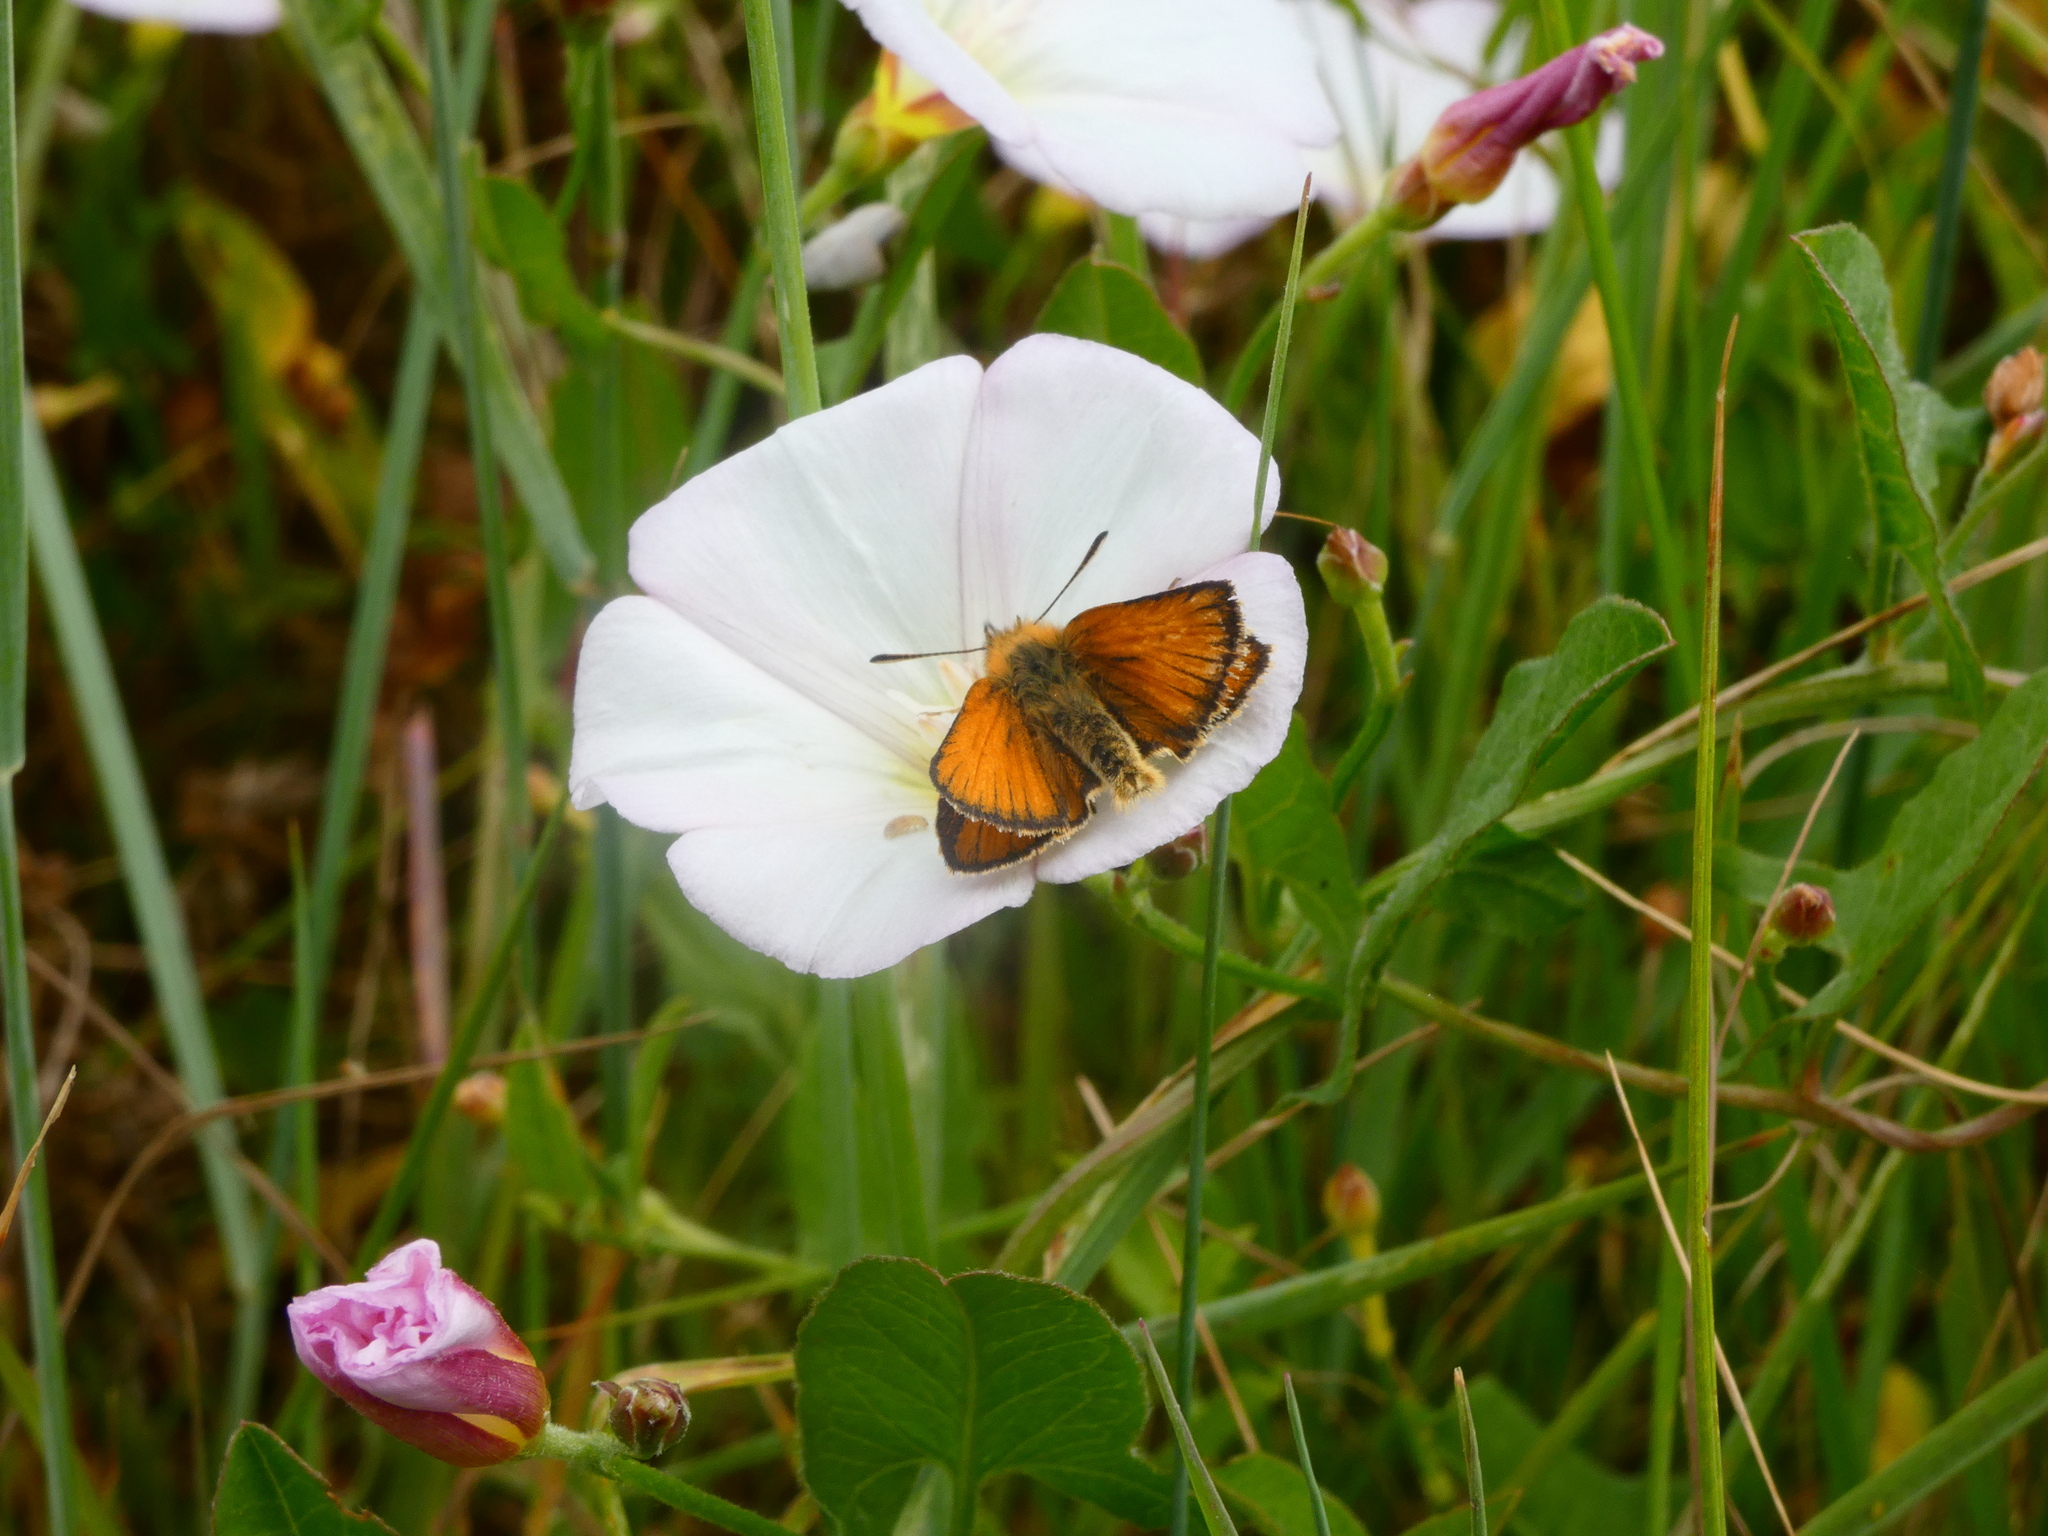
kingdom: Animalia
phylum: Arthropoda
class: Insecta
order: Lepidoptera
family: Hesperiidae
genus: Thymelicus
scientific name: Thymelicus lineola
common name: Essex skipper
